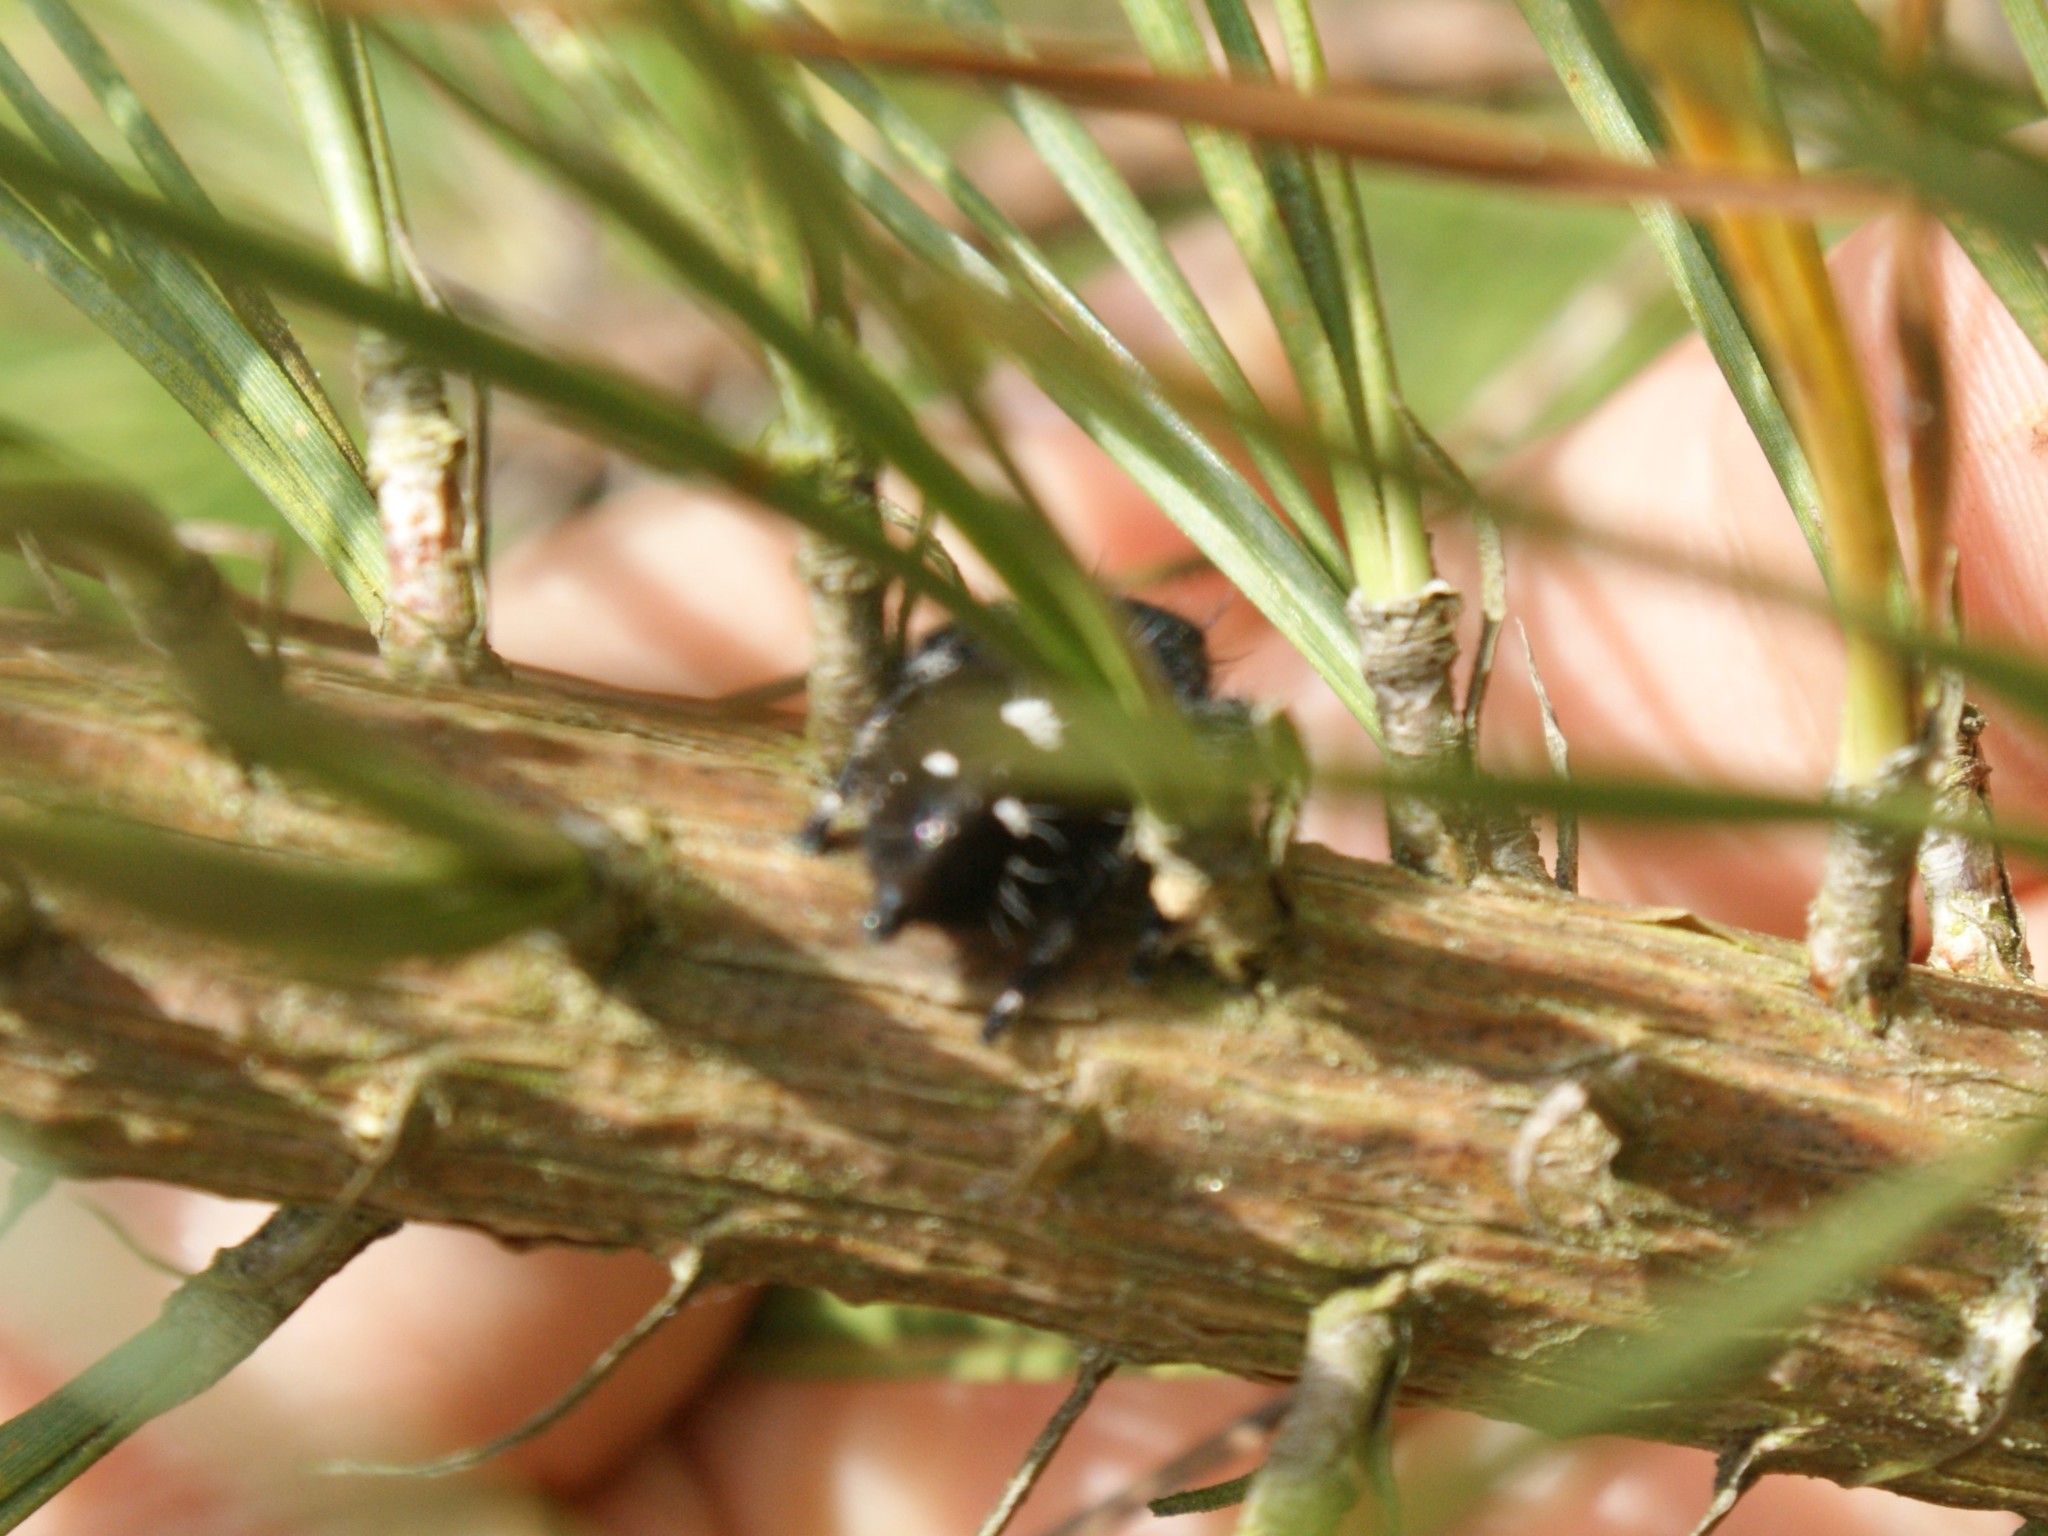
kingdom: Animalia
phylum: Arthropoda
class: Arachnida
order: Araneae
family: Salticidae
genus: Phidippus
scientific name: Phidippus audax
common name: Bold jumper
